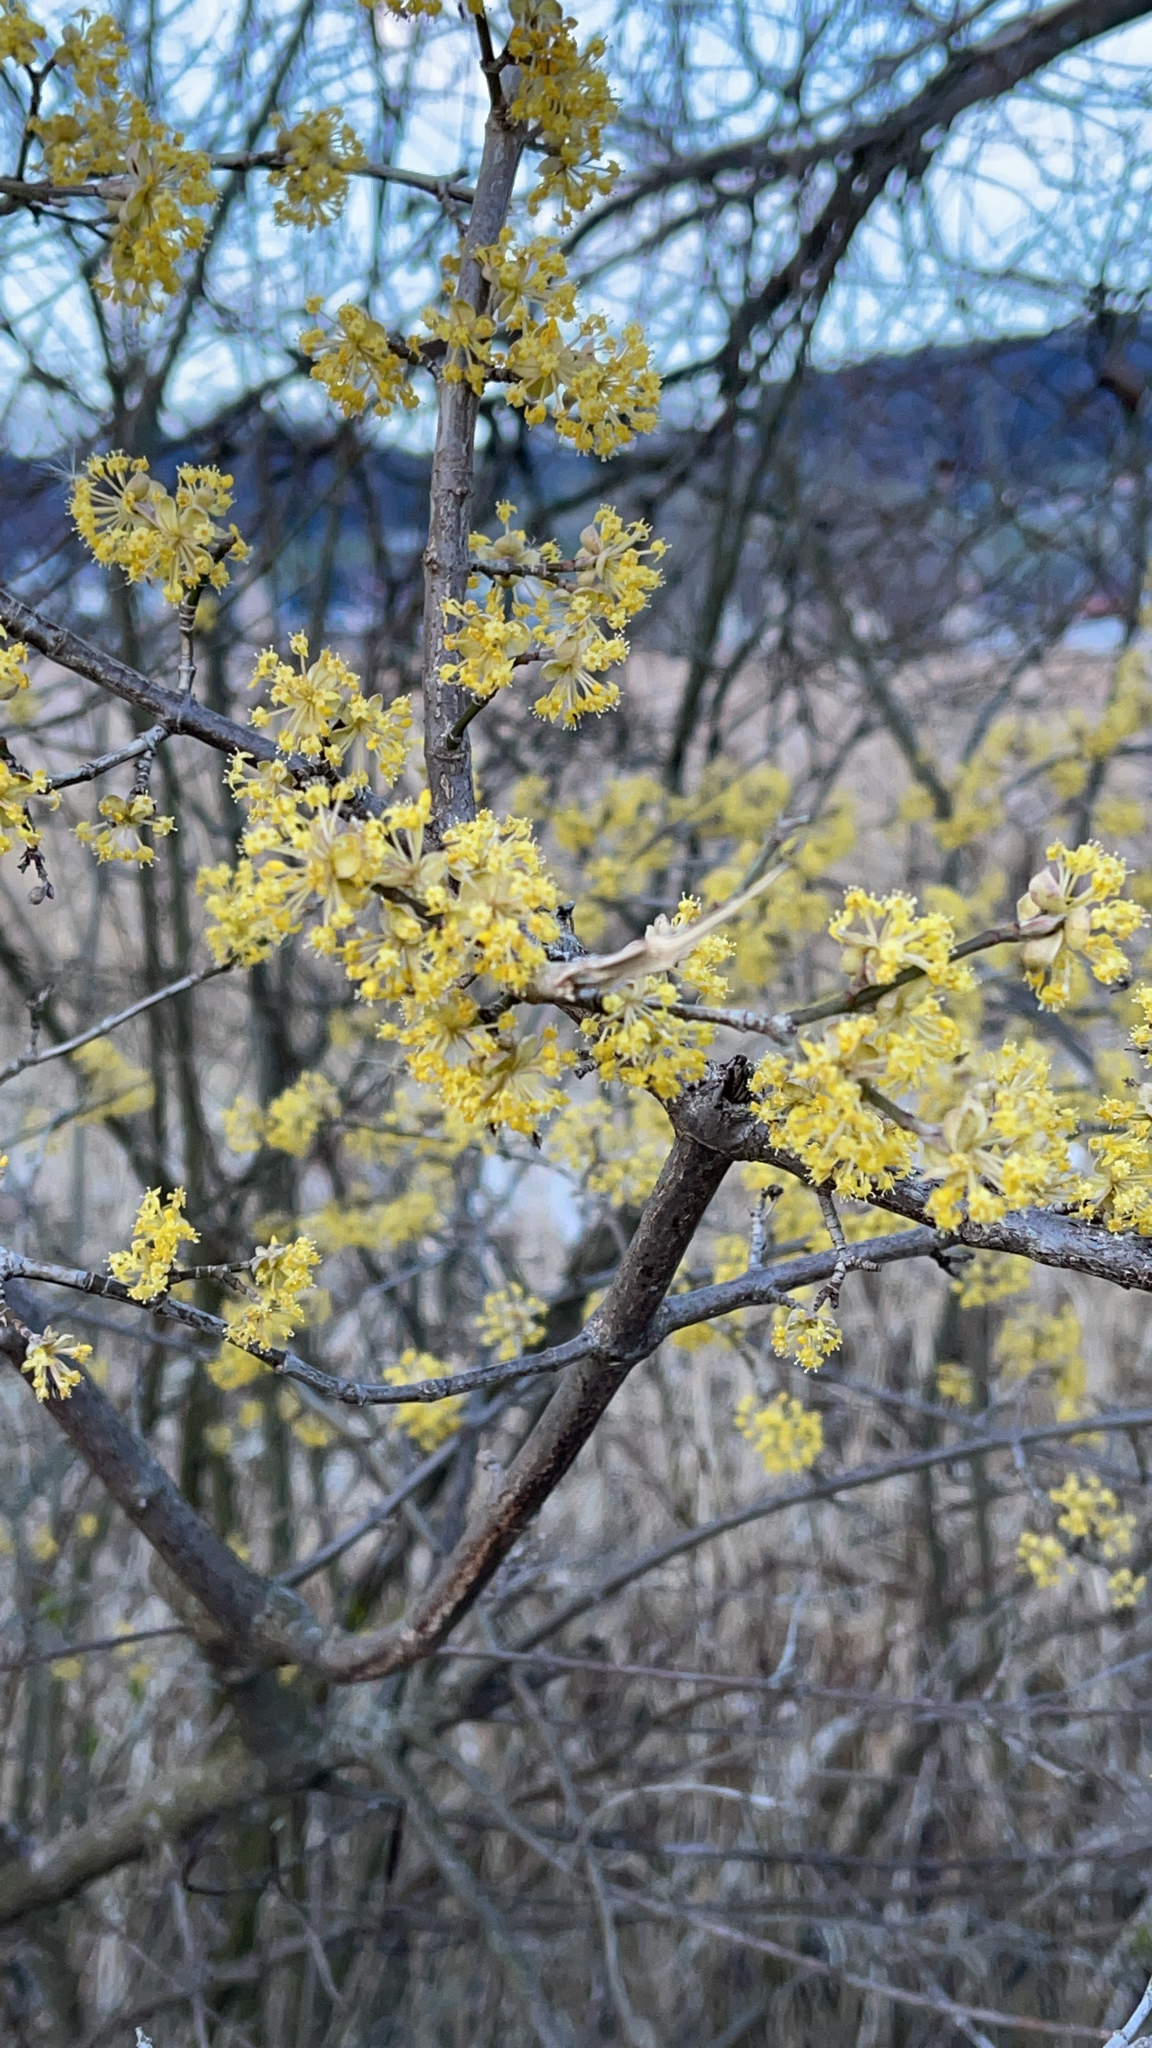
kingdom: Plantae
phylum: Tracheophyta
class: Magnoliopsida
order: Cornales
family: Cornaceae
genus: Cornus
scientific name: Cornus mas
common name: Cornelian-cherry
